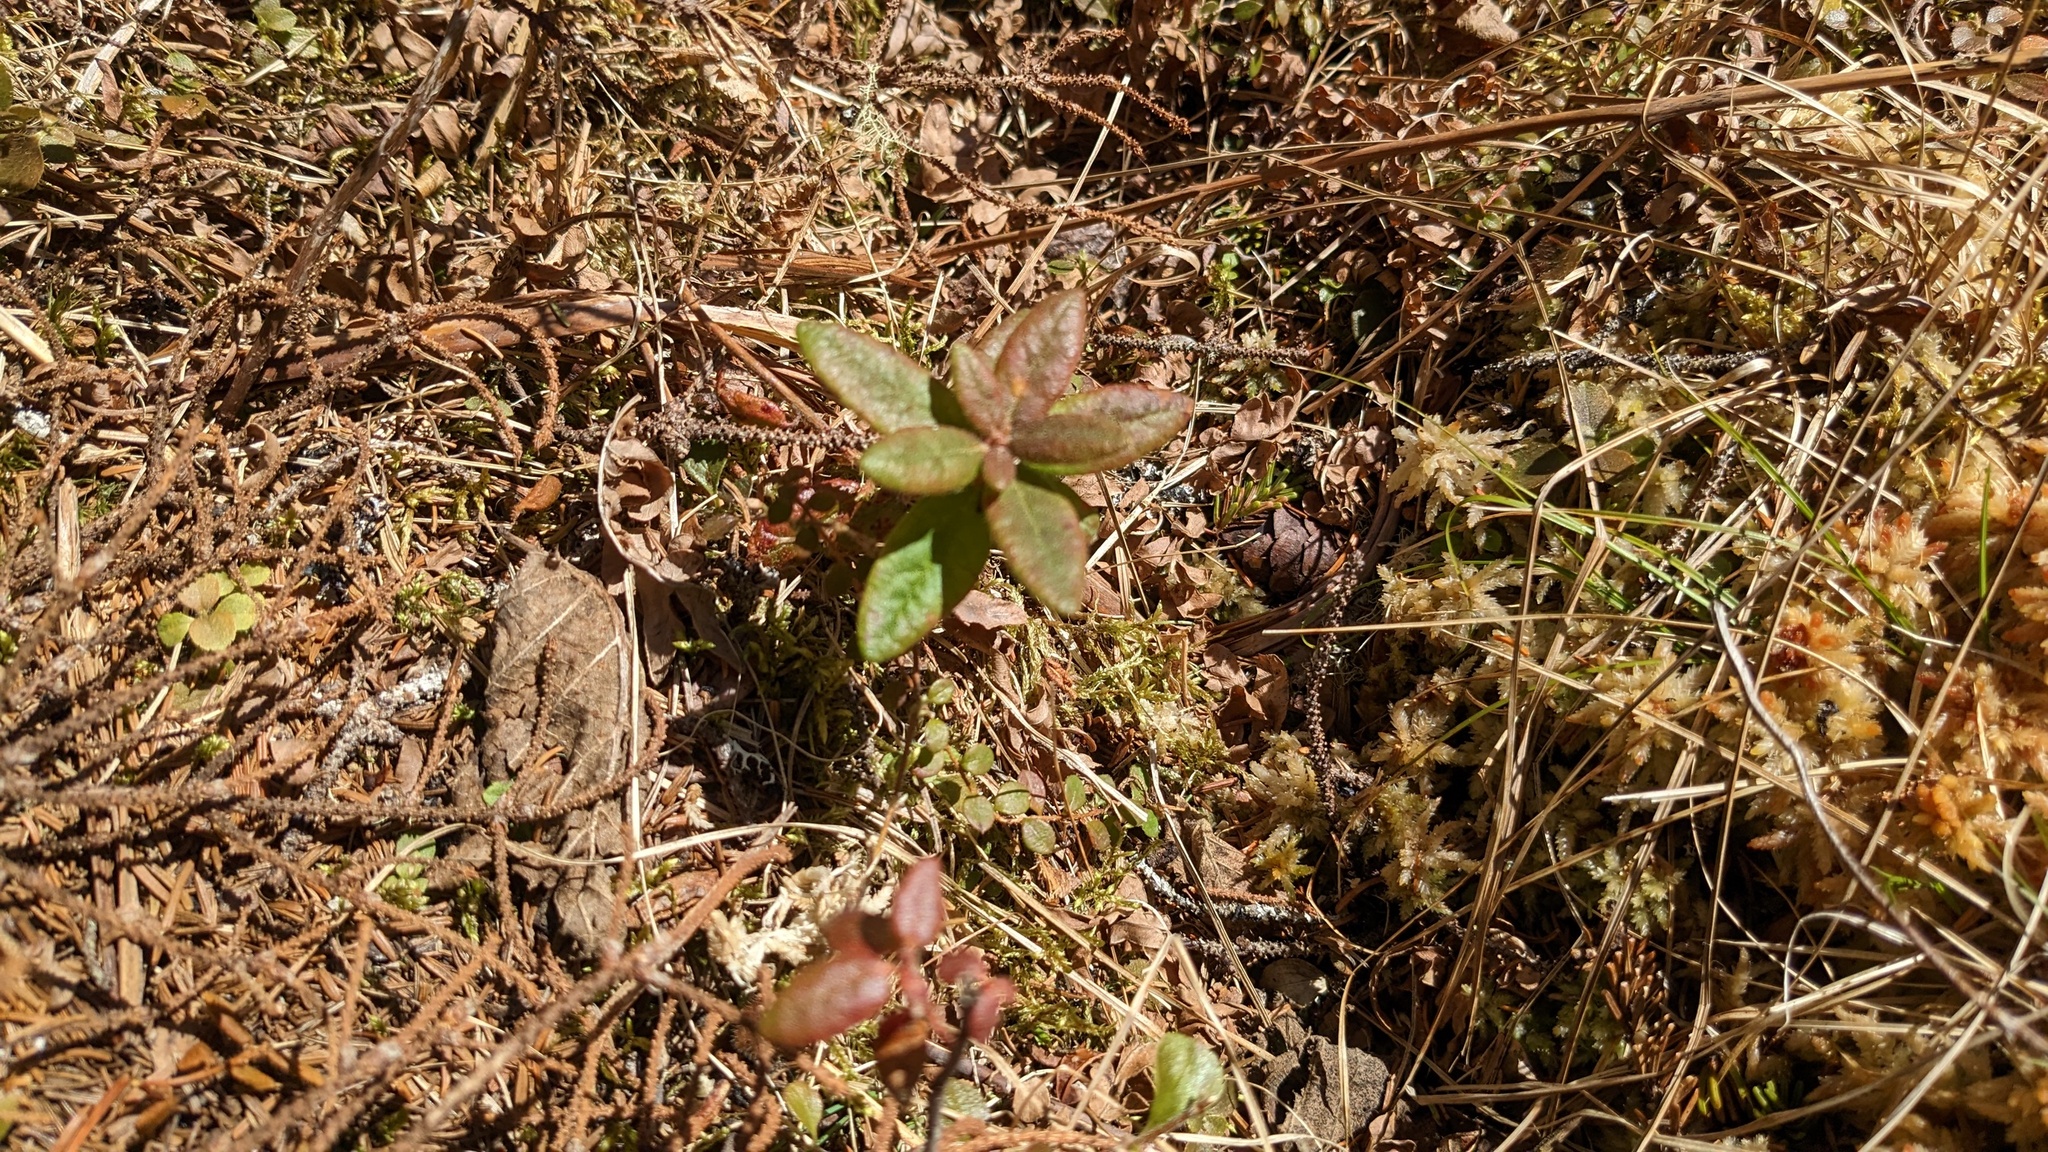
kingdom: Plantae
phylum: Tracheophyta
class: Magnoliopsida
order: Ericales
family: Ericaceae
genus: Rhododendron
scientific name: Rhododendron groenlandicum
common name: Bog labrador tea
